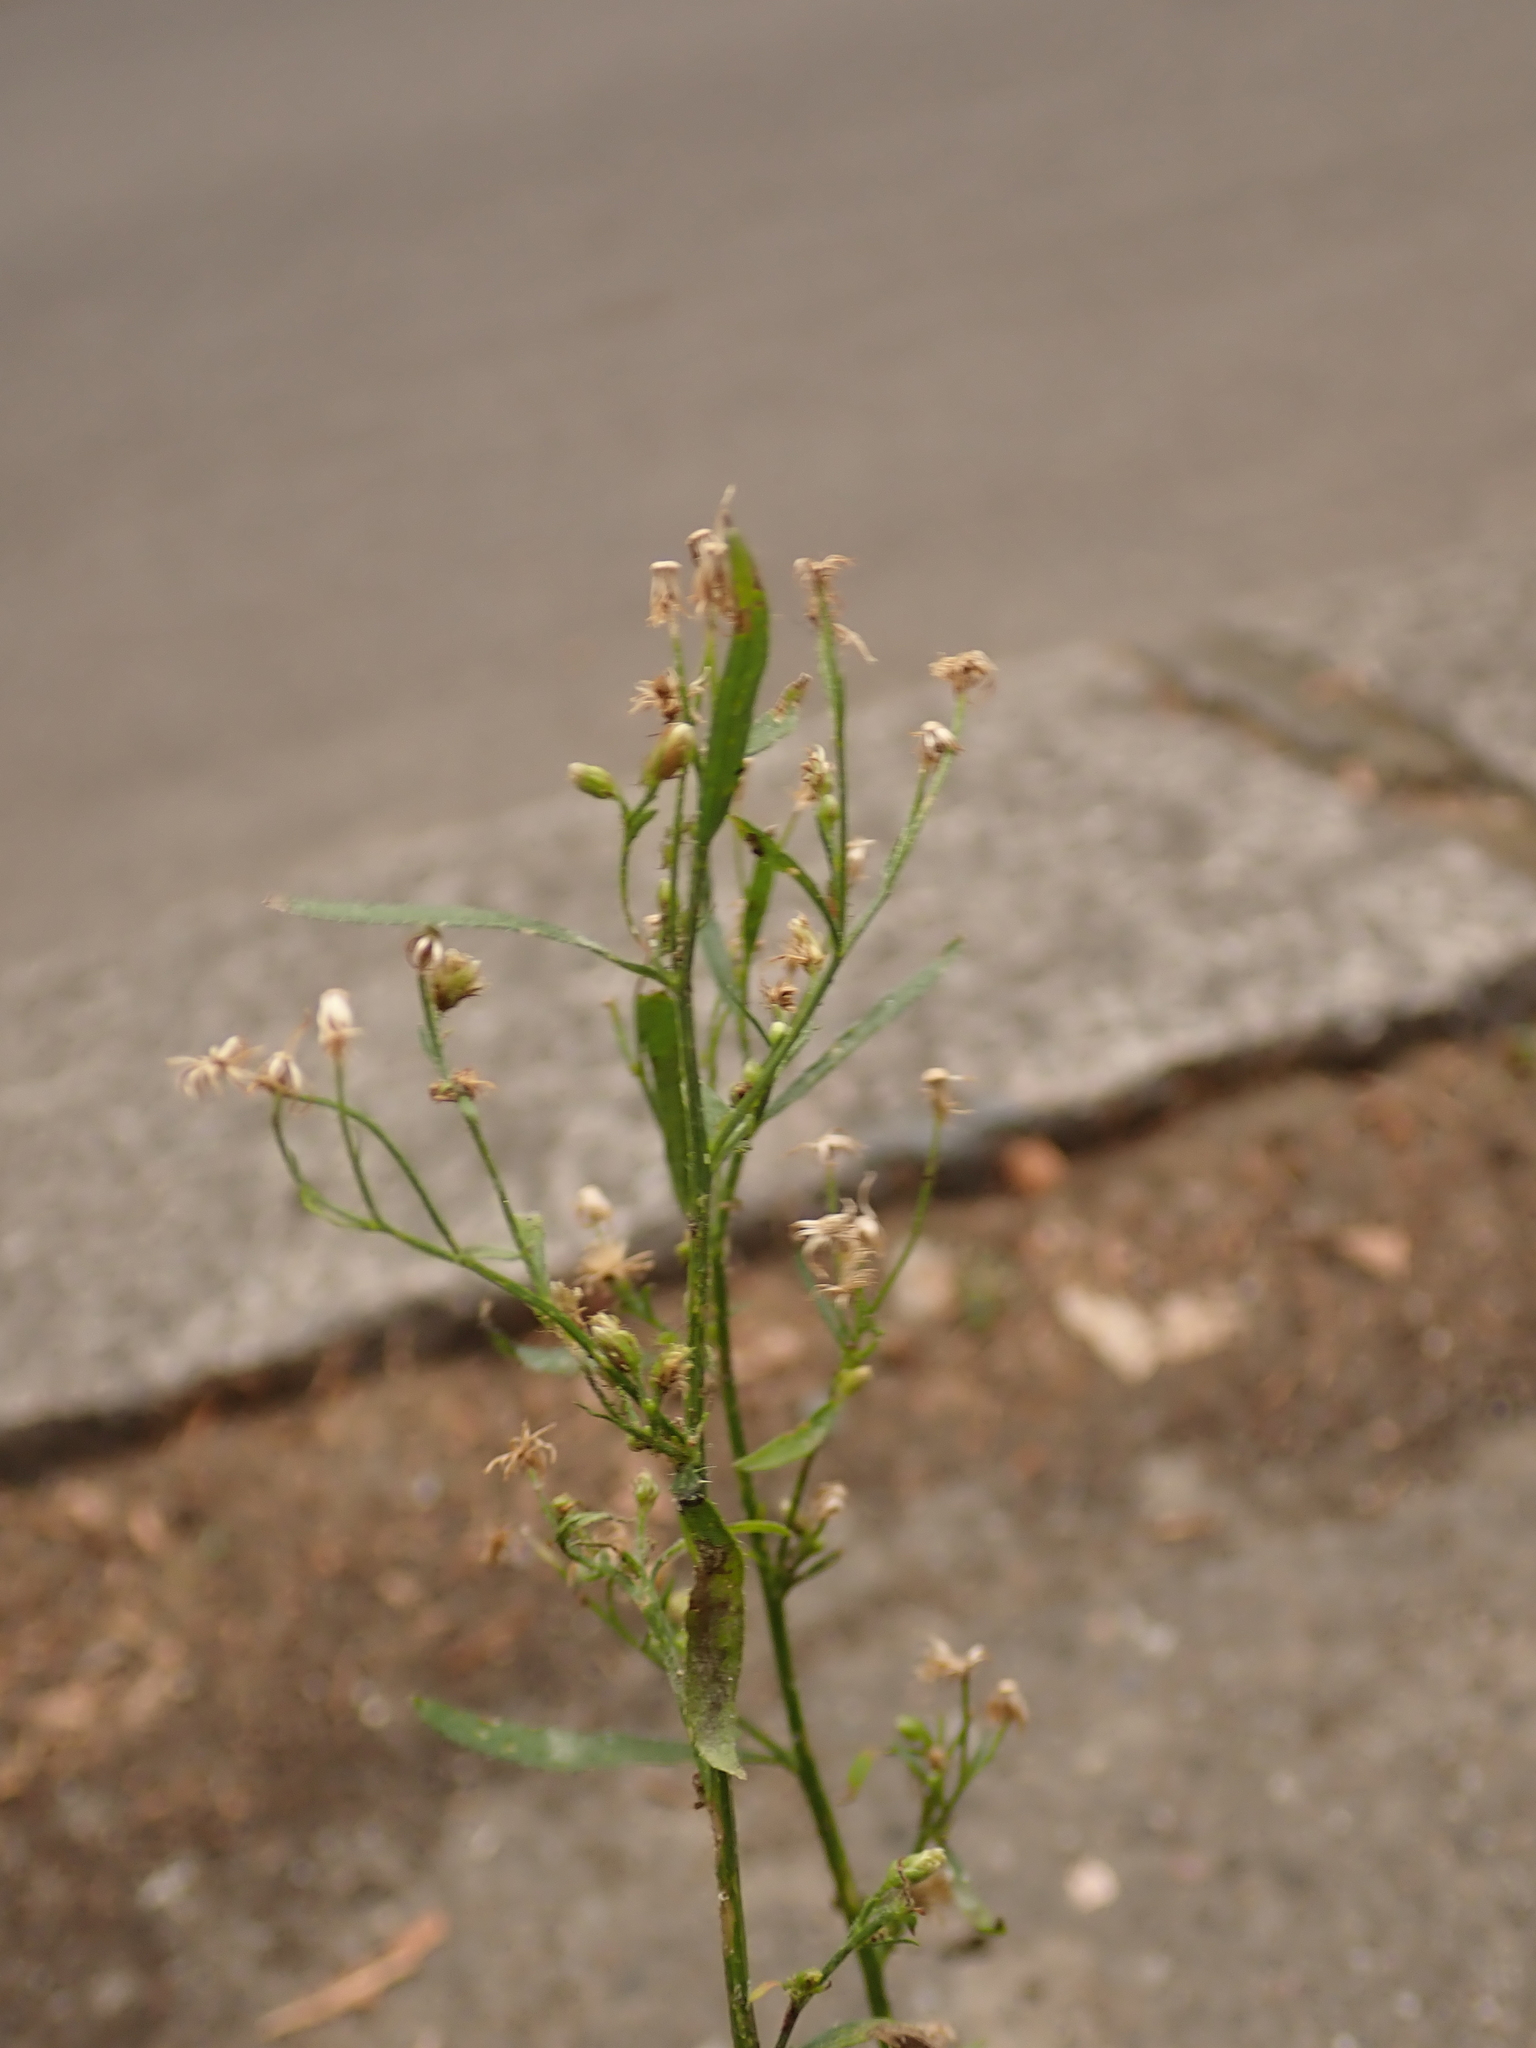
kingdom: Plantae
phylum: Tracheophyta
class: Magnoliopsida
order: Asterales
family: Asteraceae
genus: Erigeron
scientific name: Erigeron canadensis
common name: Canadian fleabane
